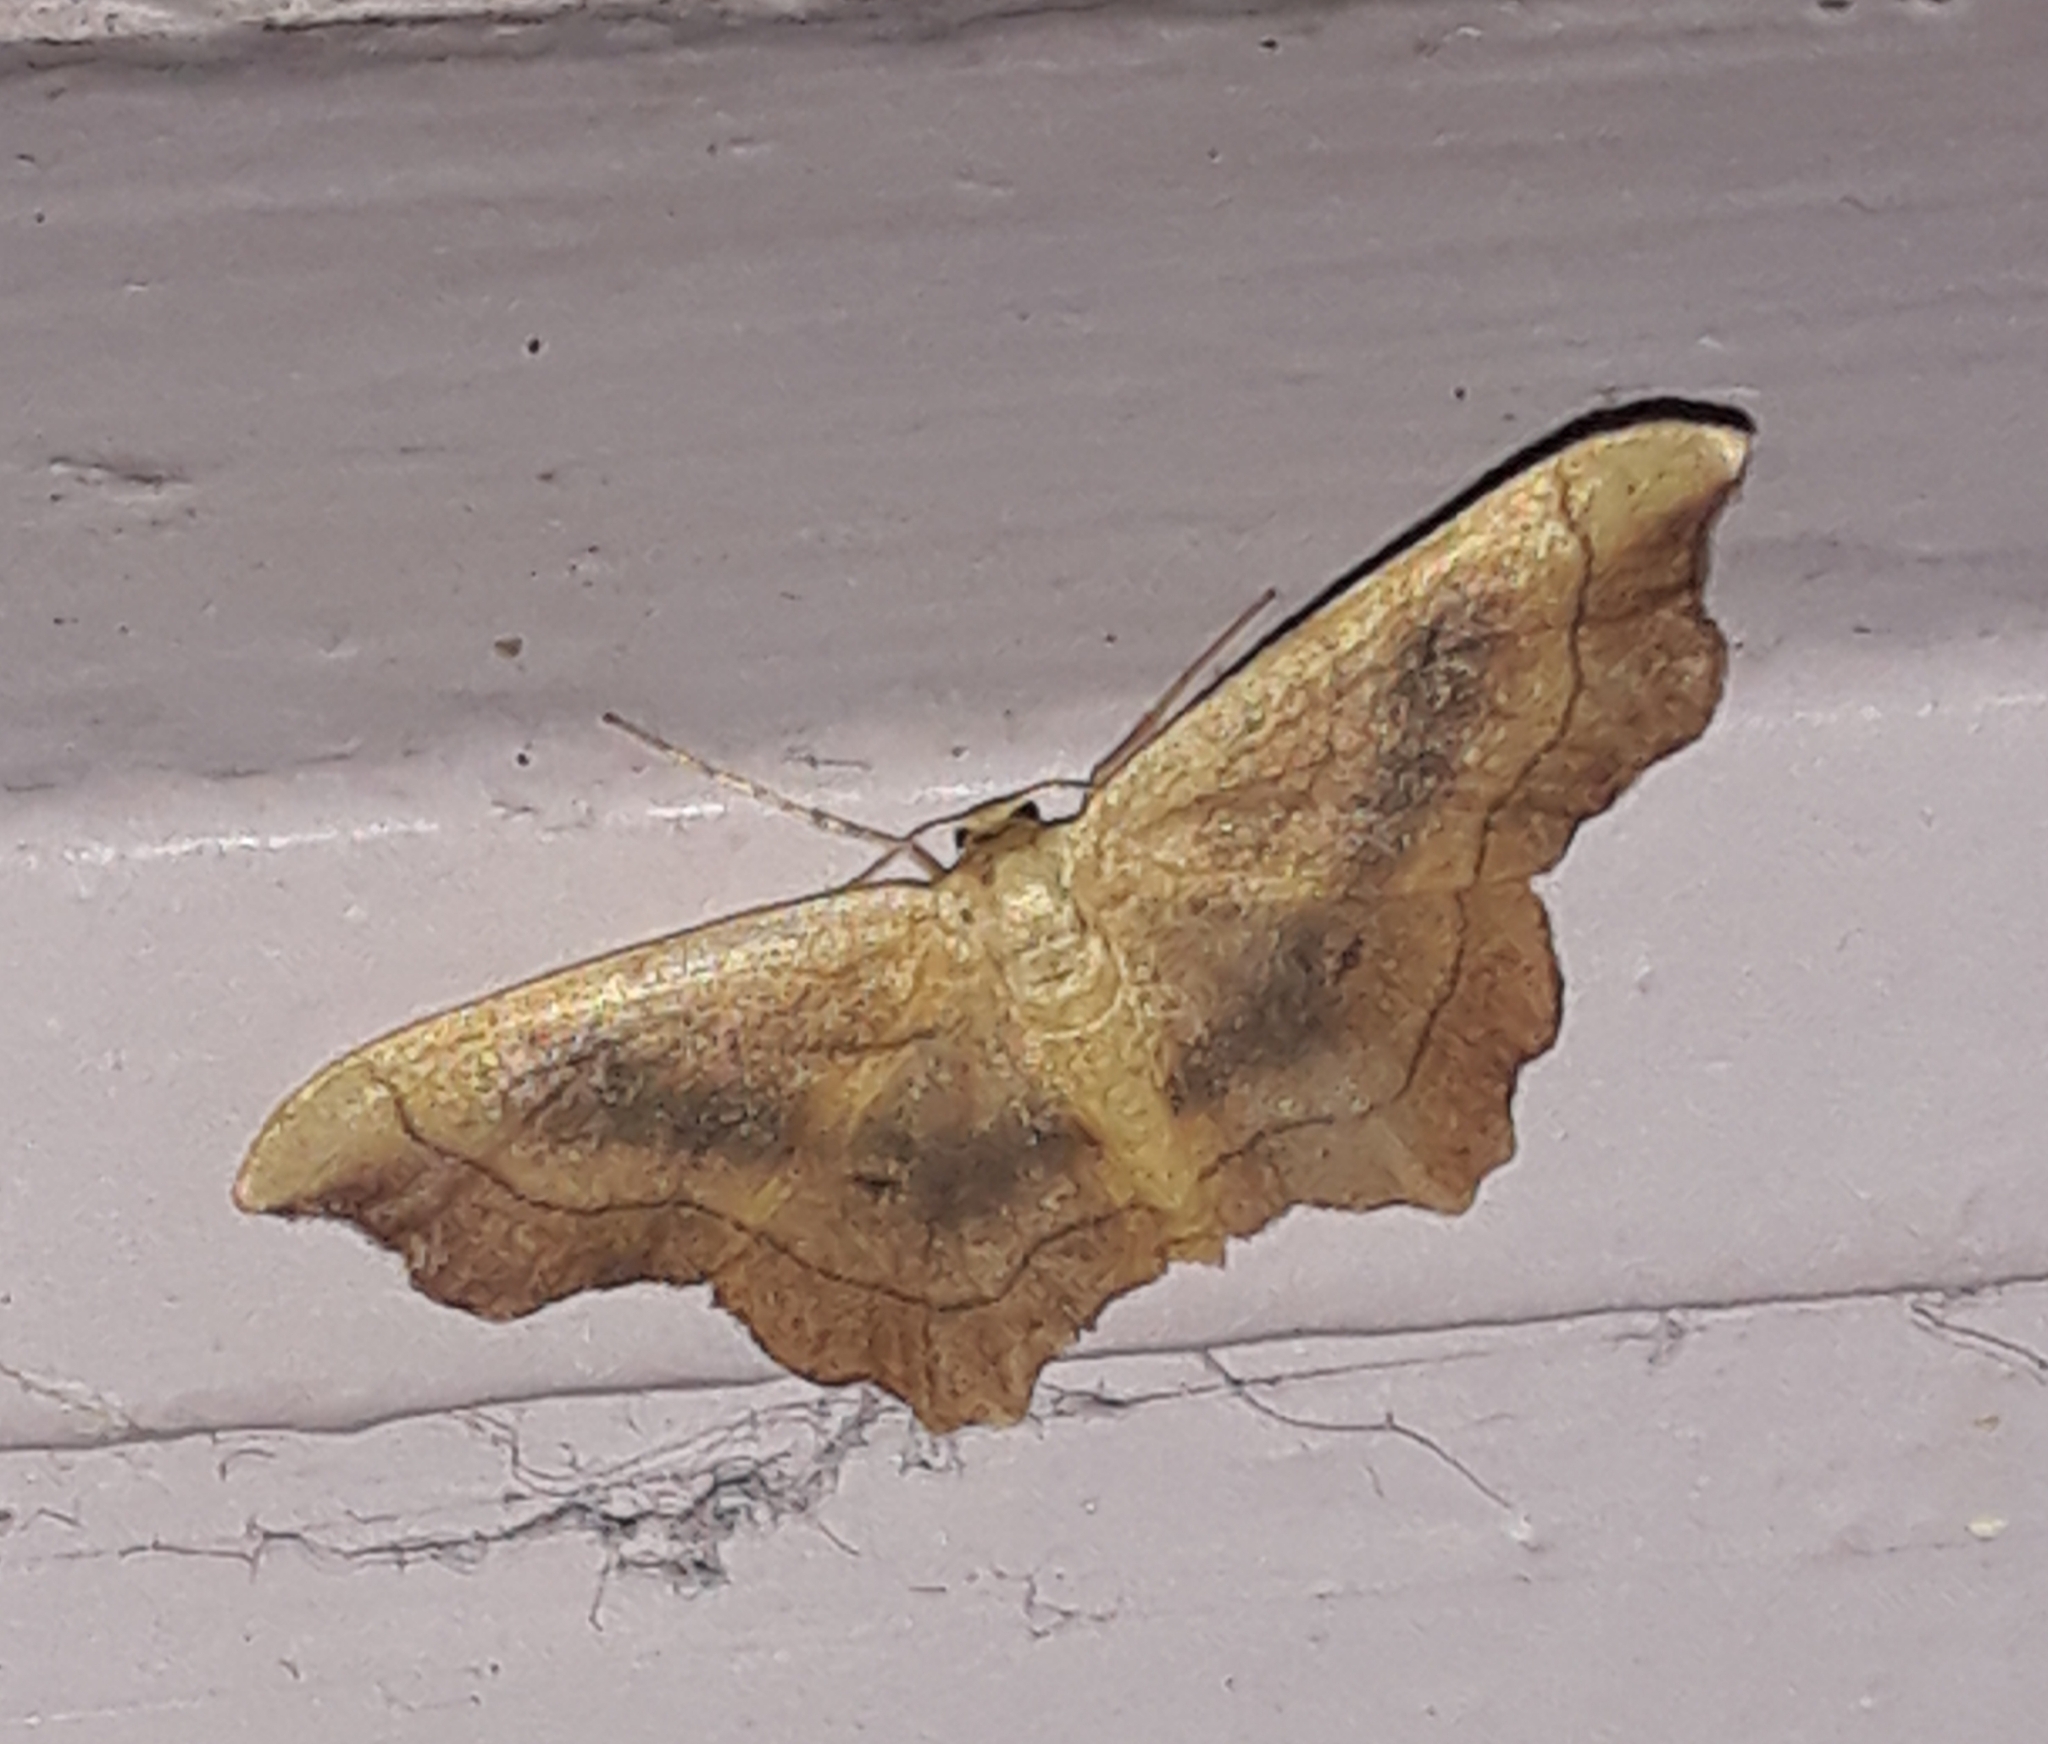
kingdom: Animalia
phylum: Arthropoda
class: Insecta
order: Lepidoptera
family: Geometridae
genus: Idaea
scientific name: Idaea emarginata
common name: Small scallop
